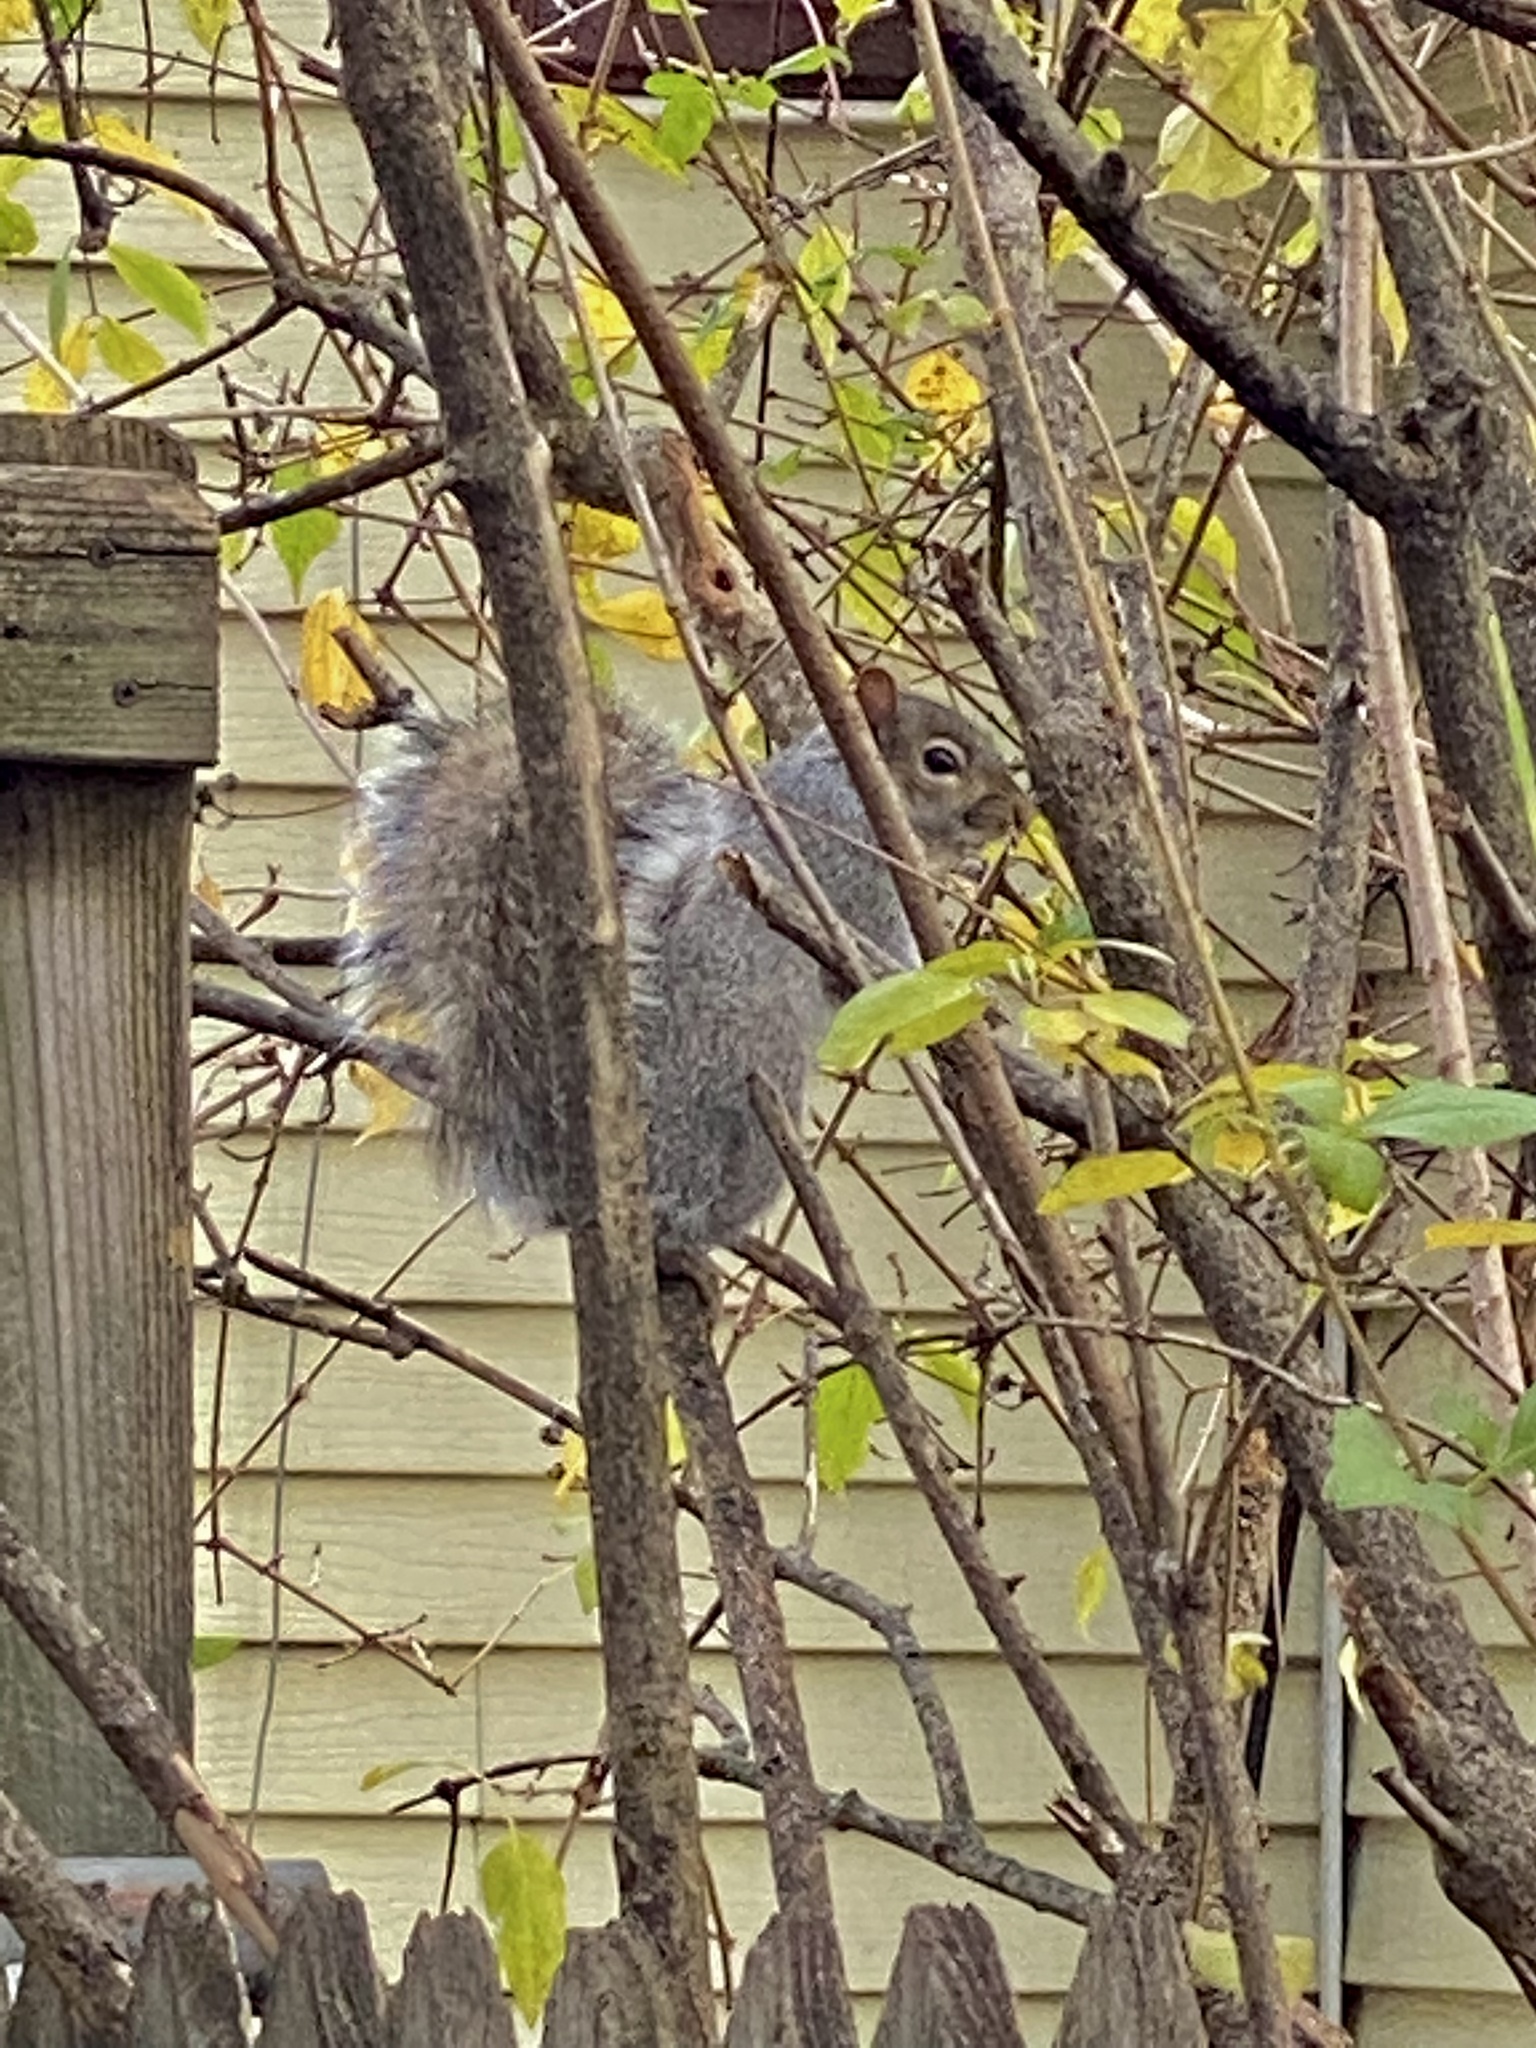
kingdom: Animalia
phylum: Chordata
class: Mammalia
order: Rodentia
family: Sciuridae
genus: Sciurus
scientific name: Sciurus carolinensis
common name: Eastern gray squirrel
